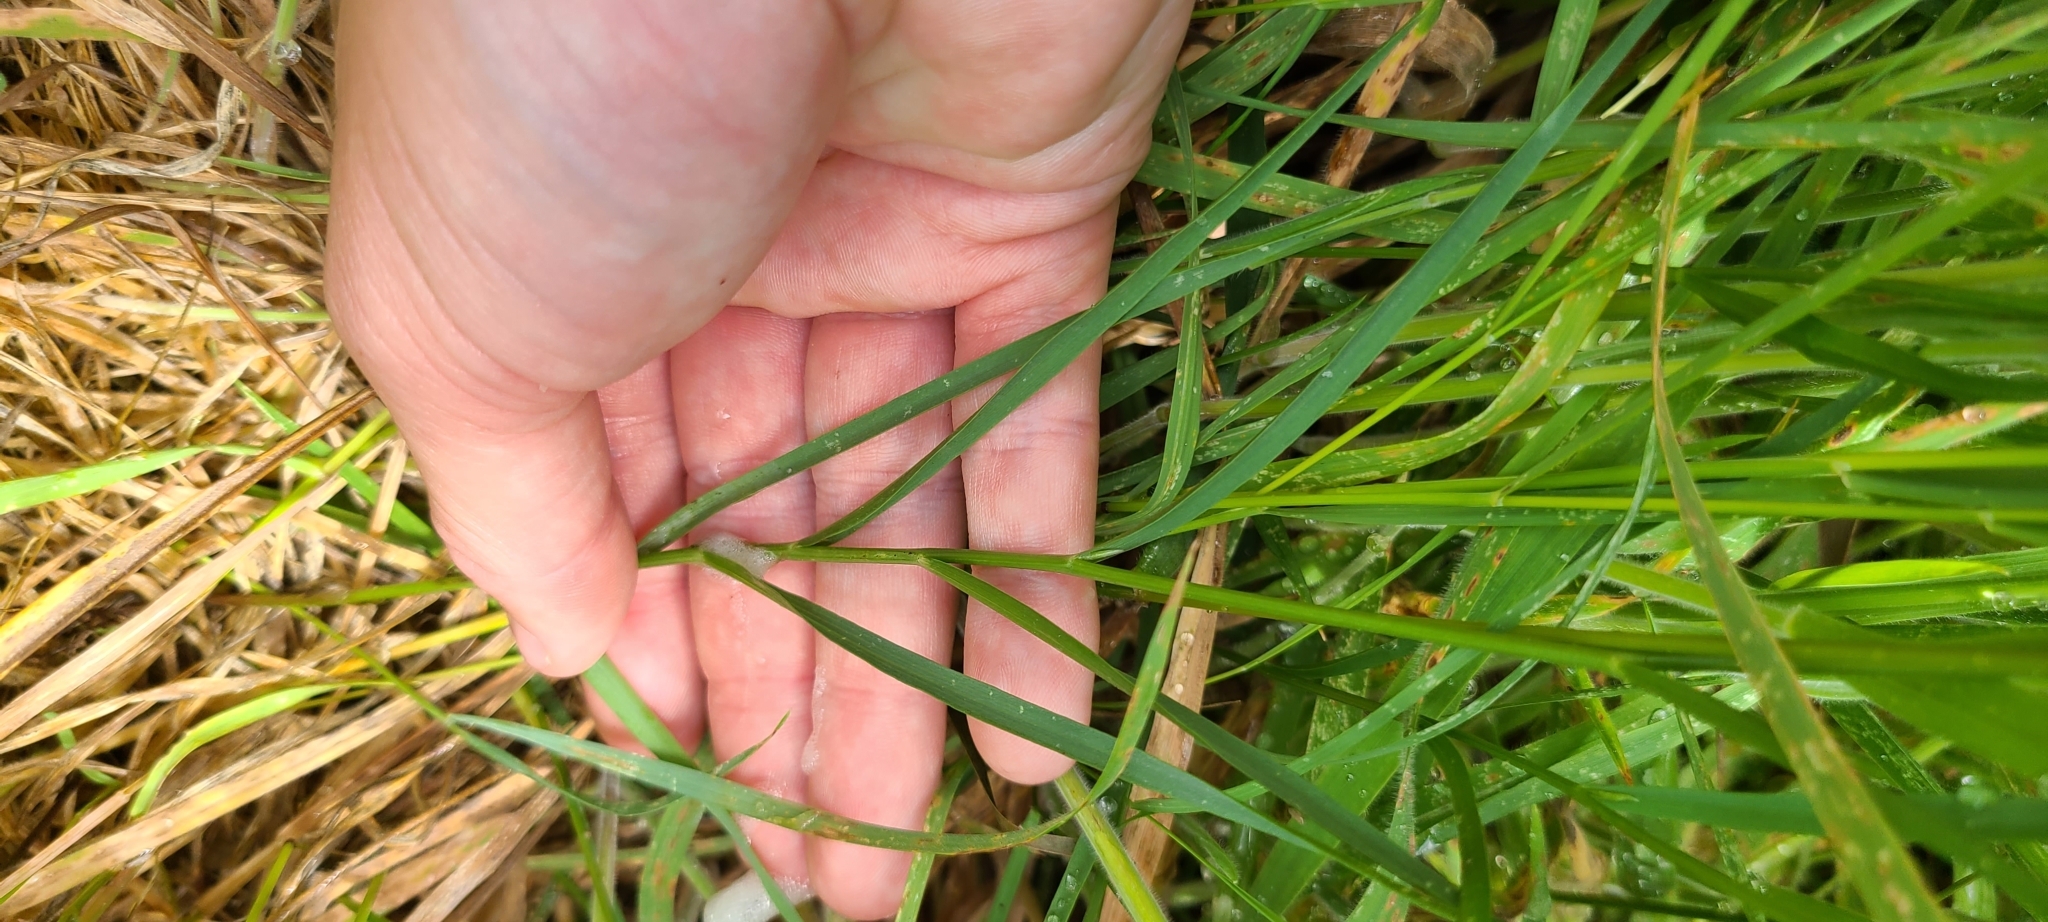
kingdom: Plantae
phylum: Tracheophyta
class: Magnoliopsida
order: Fabales
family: Fabaceae
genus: Lathyrus
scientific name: Lathyrus nissolia
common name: Grass vetchling
